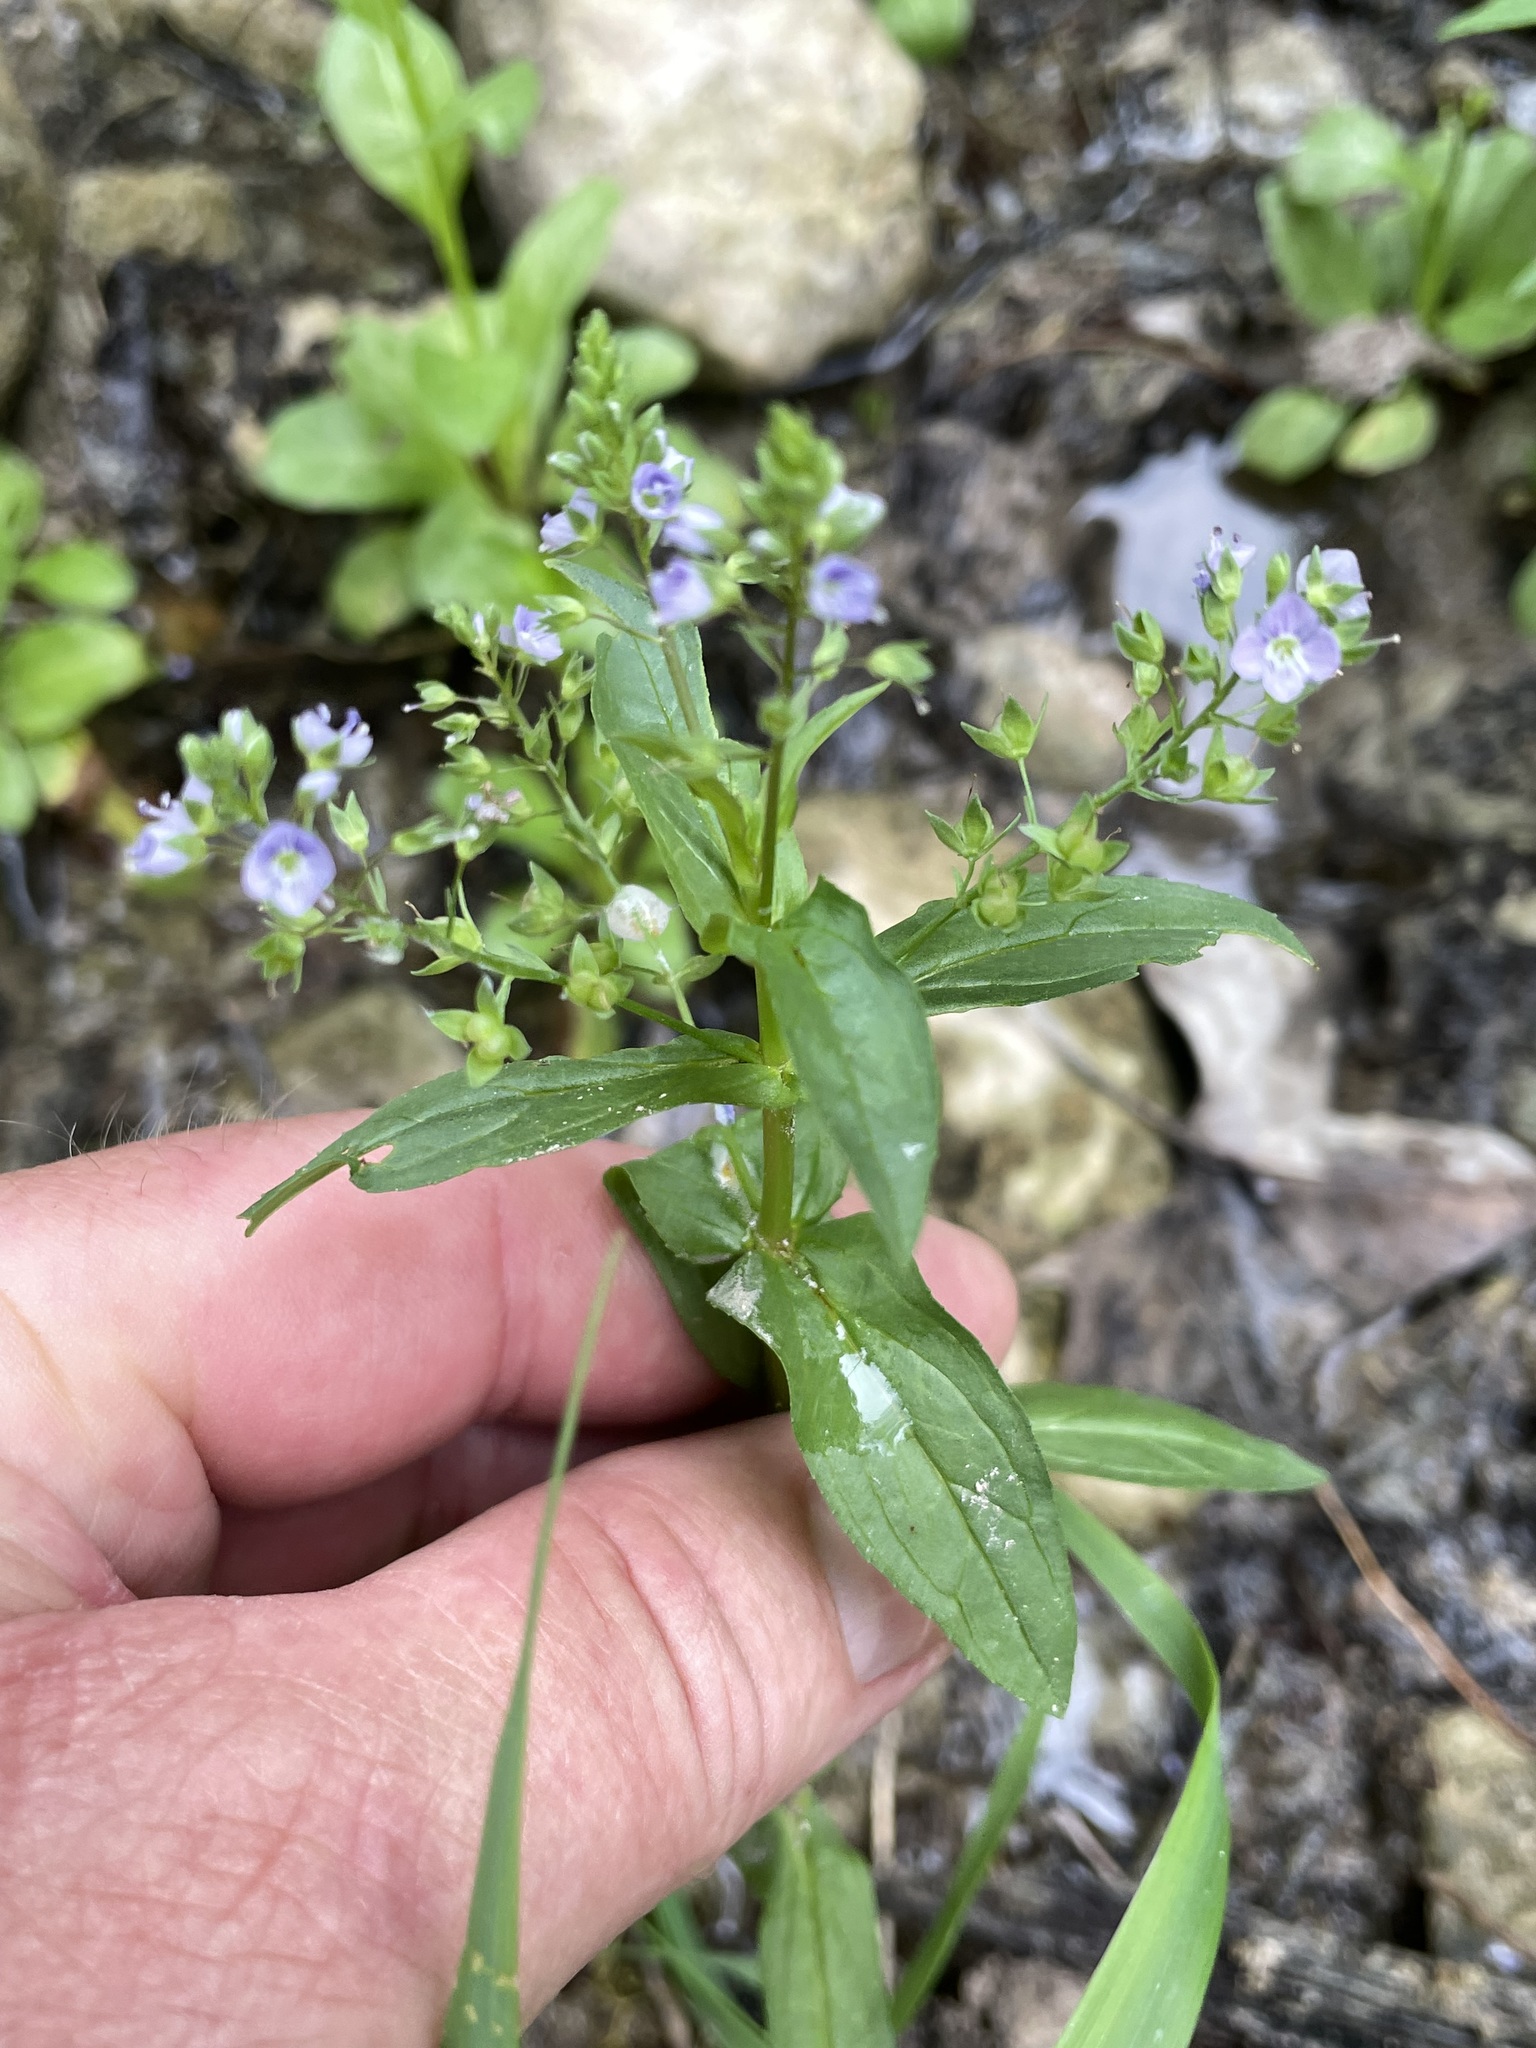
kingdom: Plantae
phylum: Tracheophyta
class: Magnoliopsida
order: Lamiales
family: Plantaginaceae
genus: Veronica
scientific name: Veronica anagallis-aquatica
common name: Water speedwell
